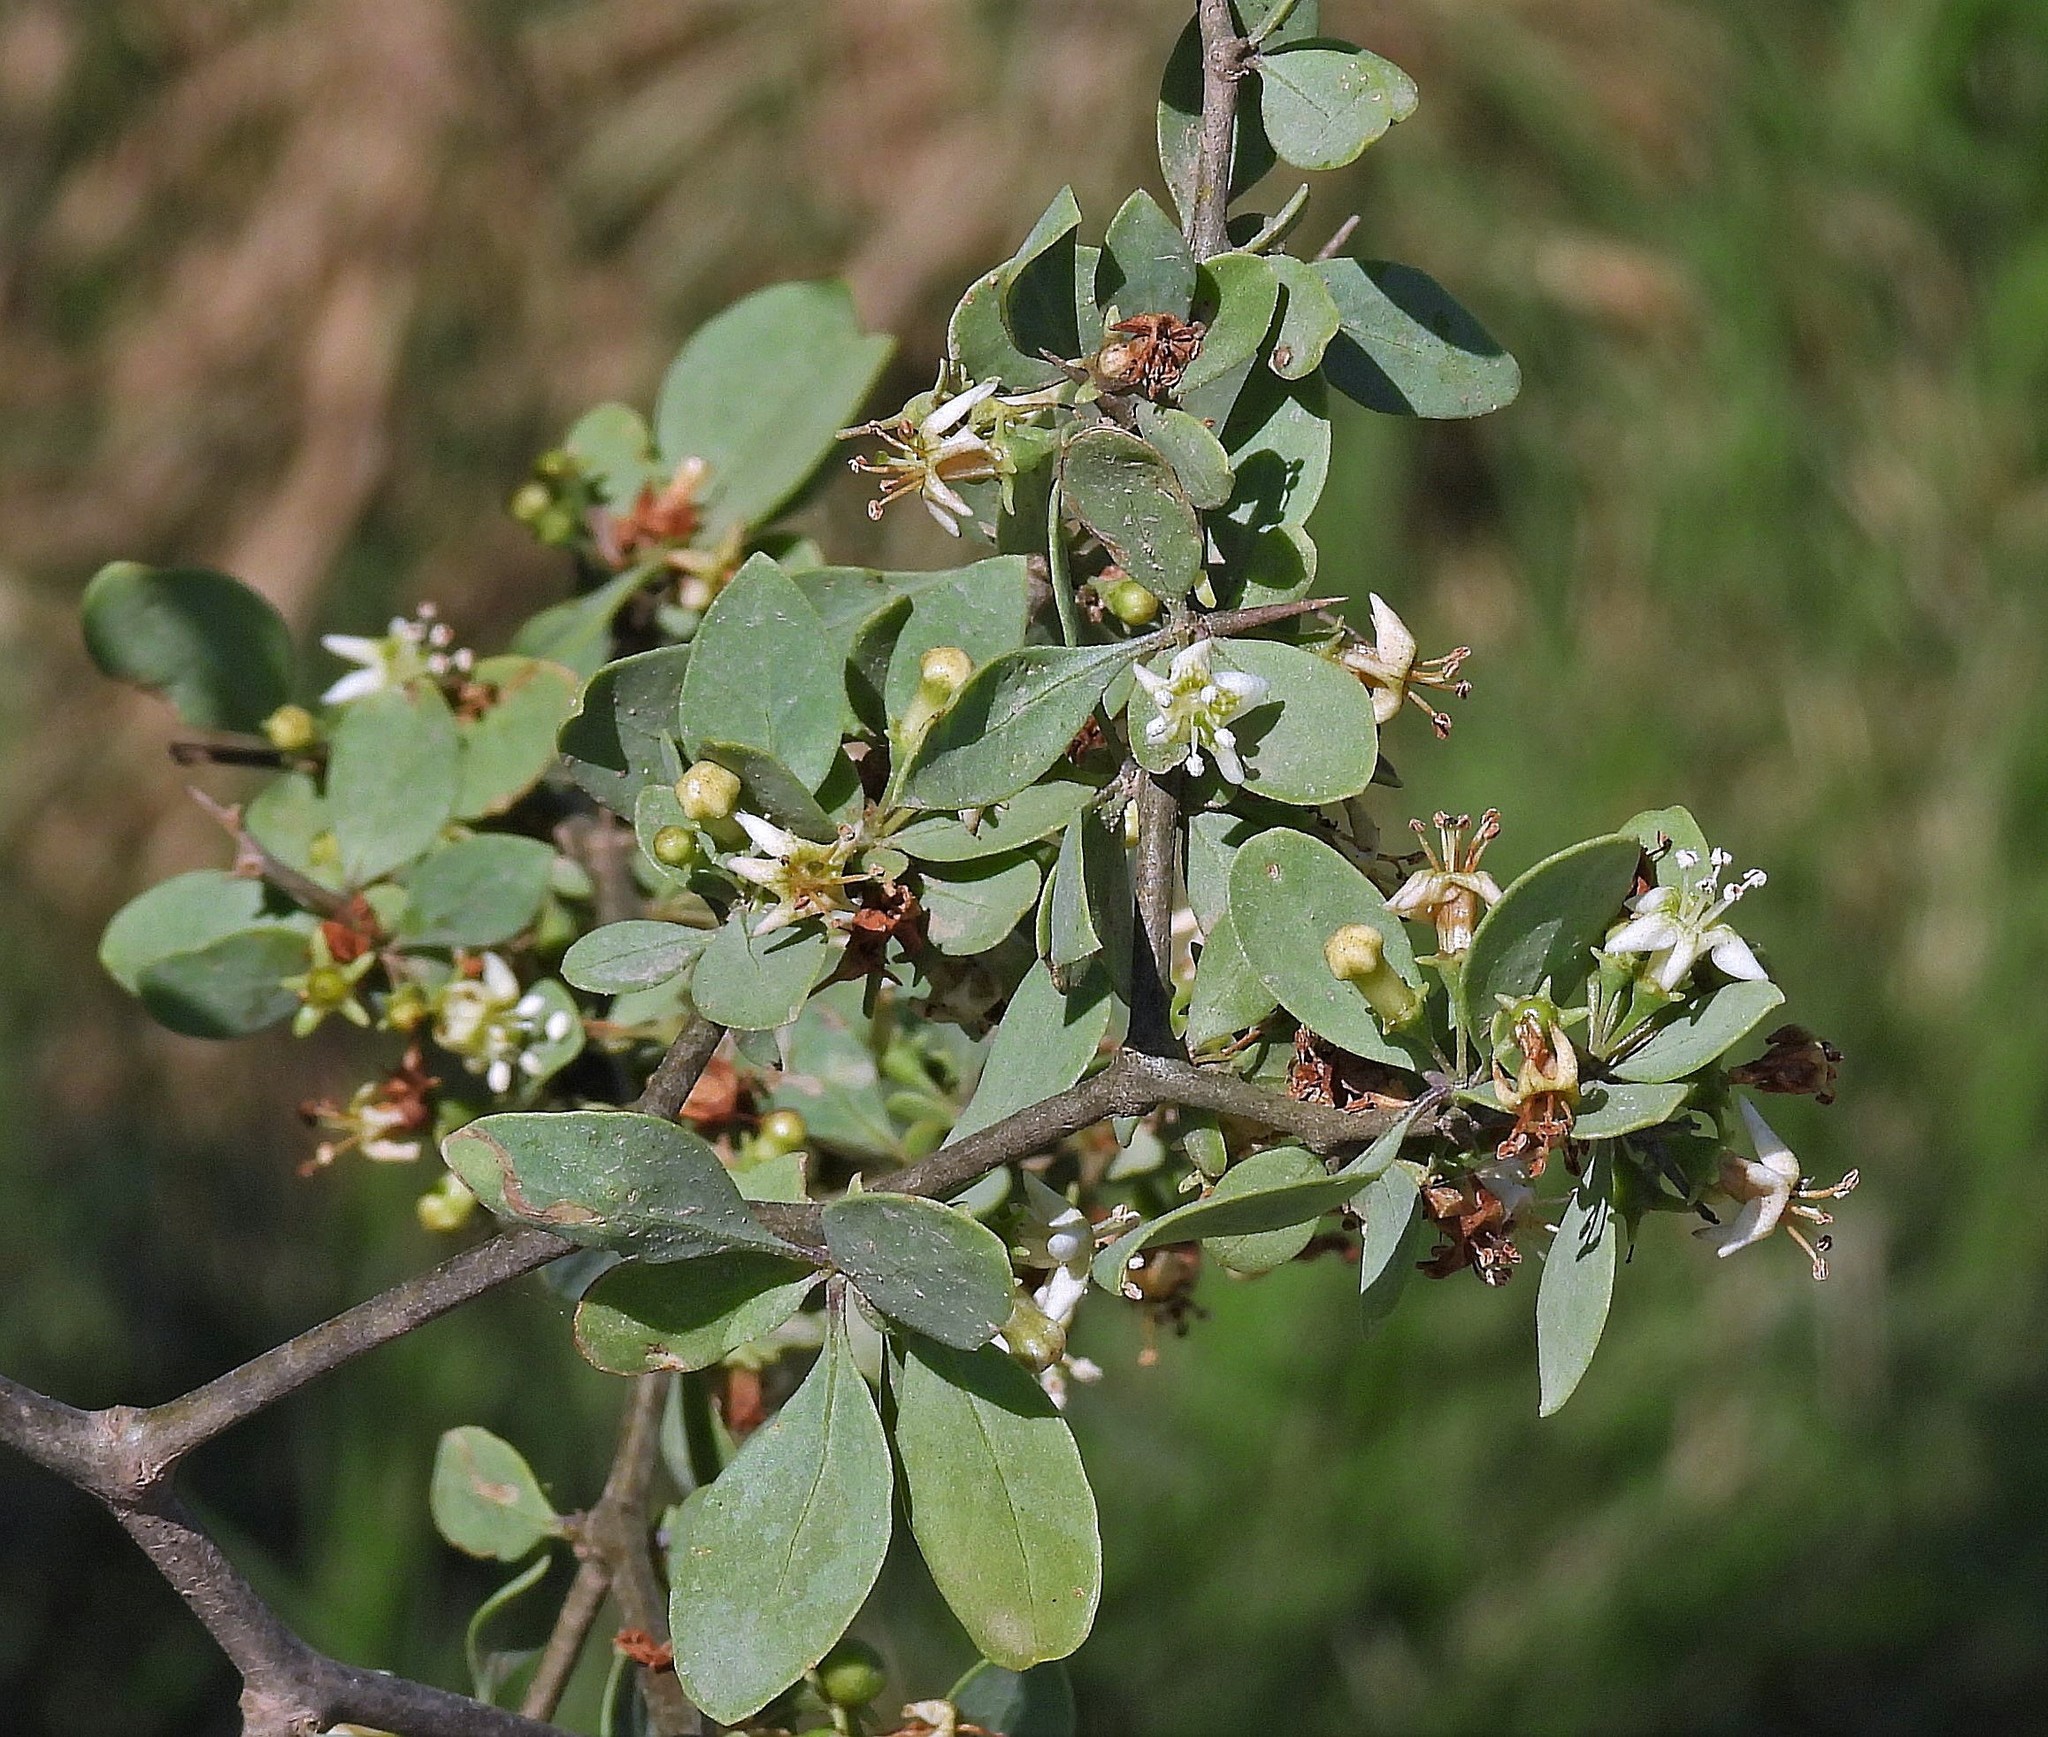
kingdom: Plantae
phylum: Tracheophyta
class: Magnoliopsida
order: Solanales
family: Solanaceae
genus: Lycium
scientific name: Lycium boerhaaviifolium
